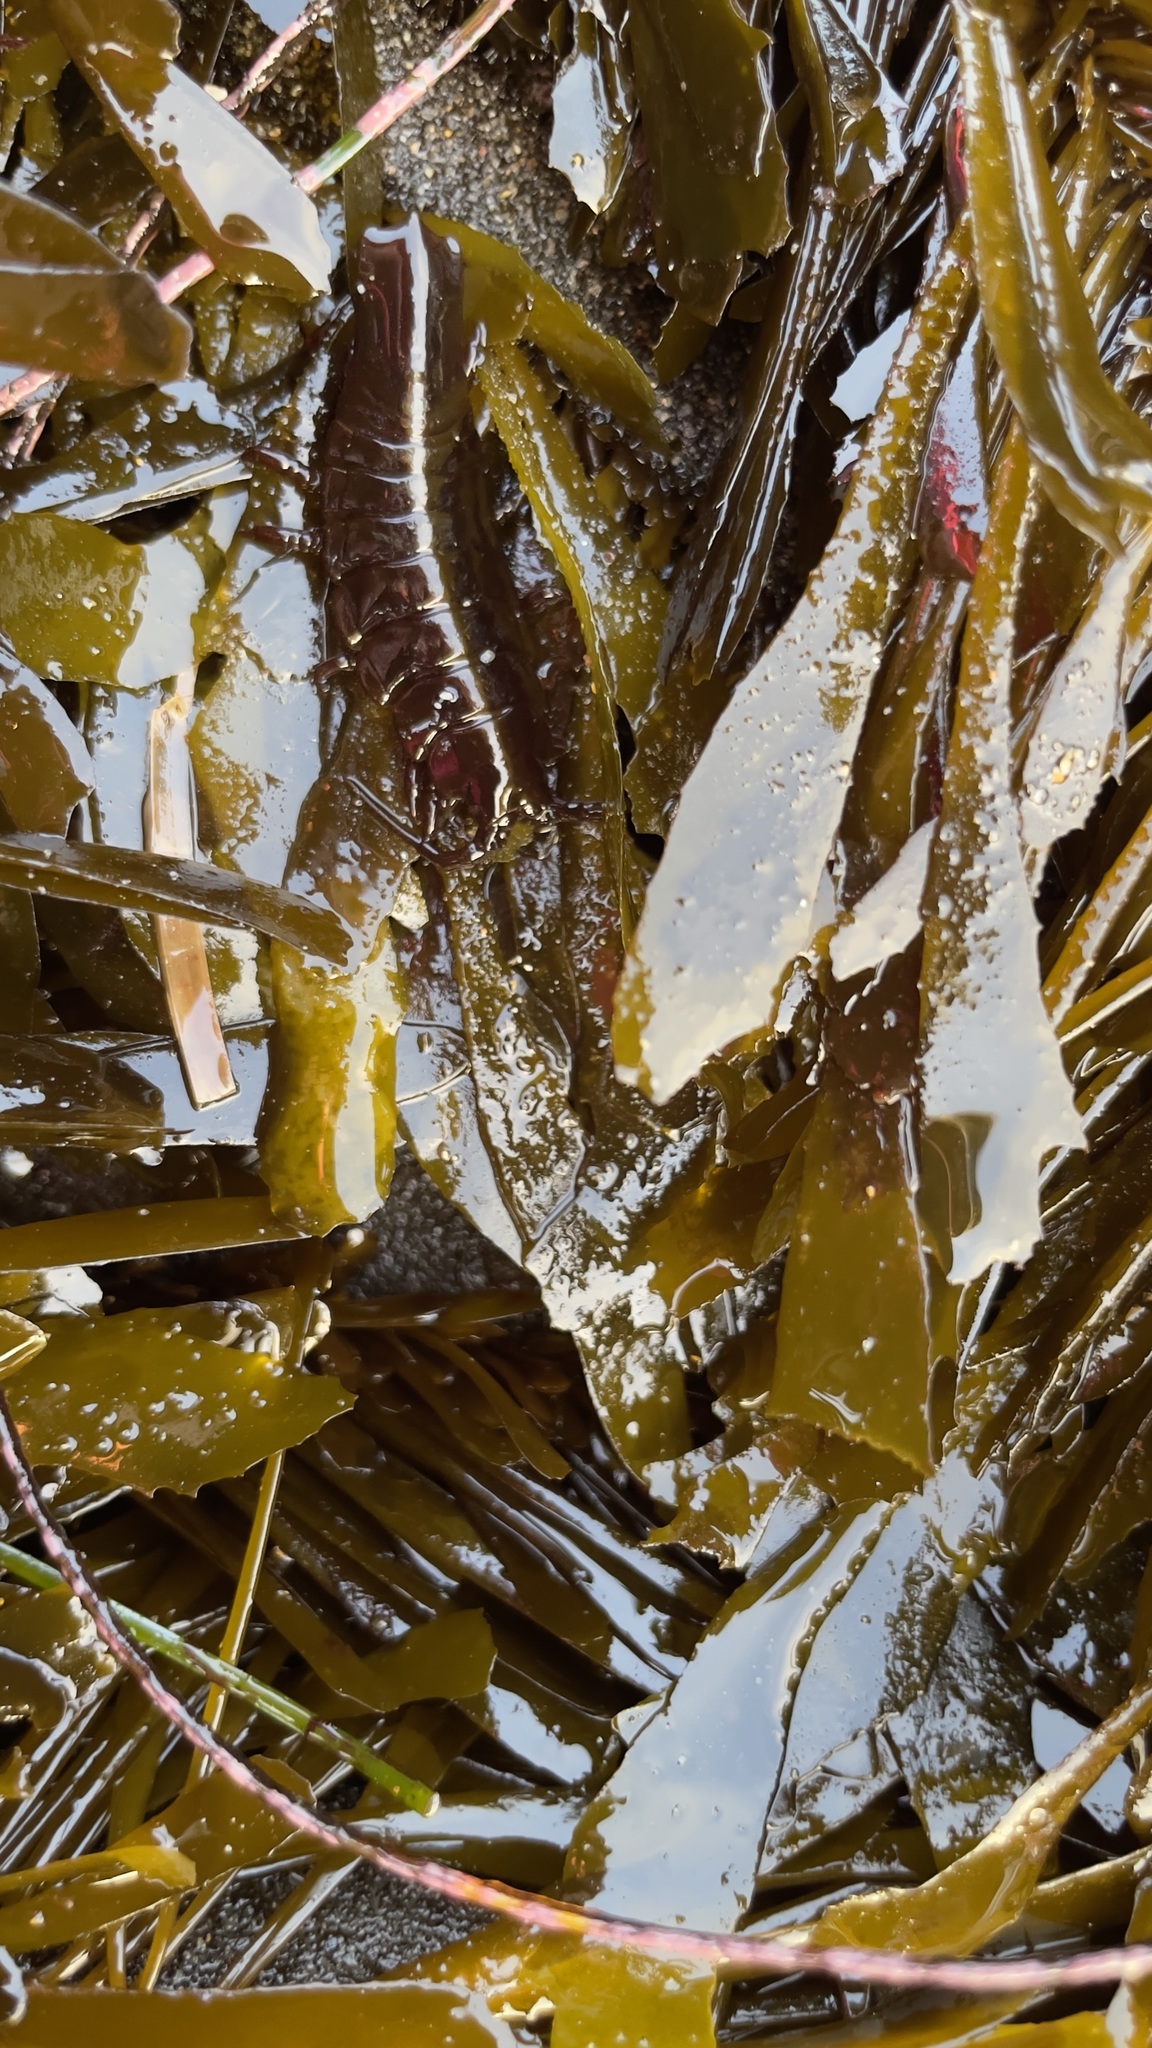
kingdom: Animalia
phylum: Arthropoda
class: Malacostraca
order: Isopoda
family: Idoteidae
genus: Pentidotea
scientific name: Pentidotea stenops
